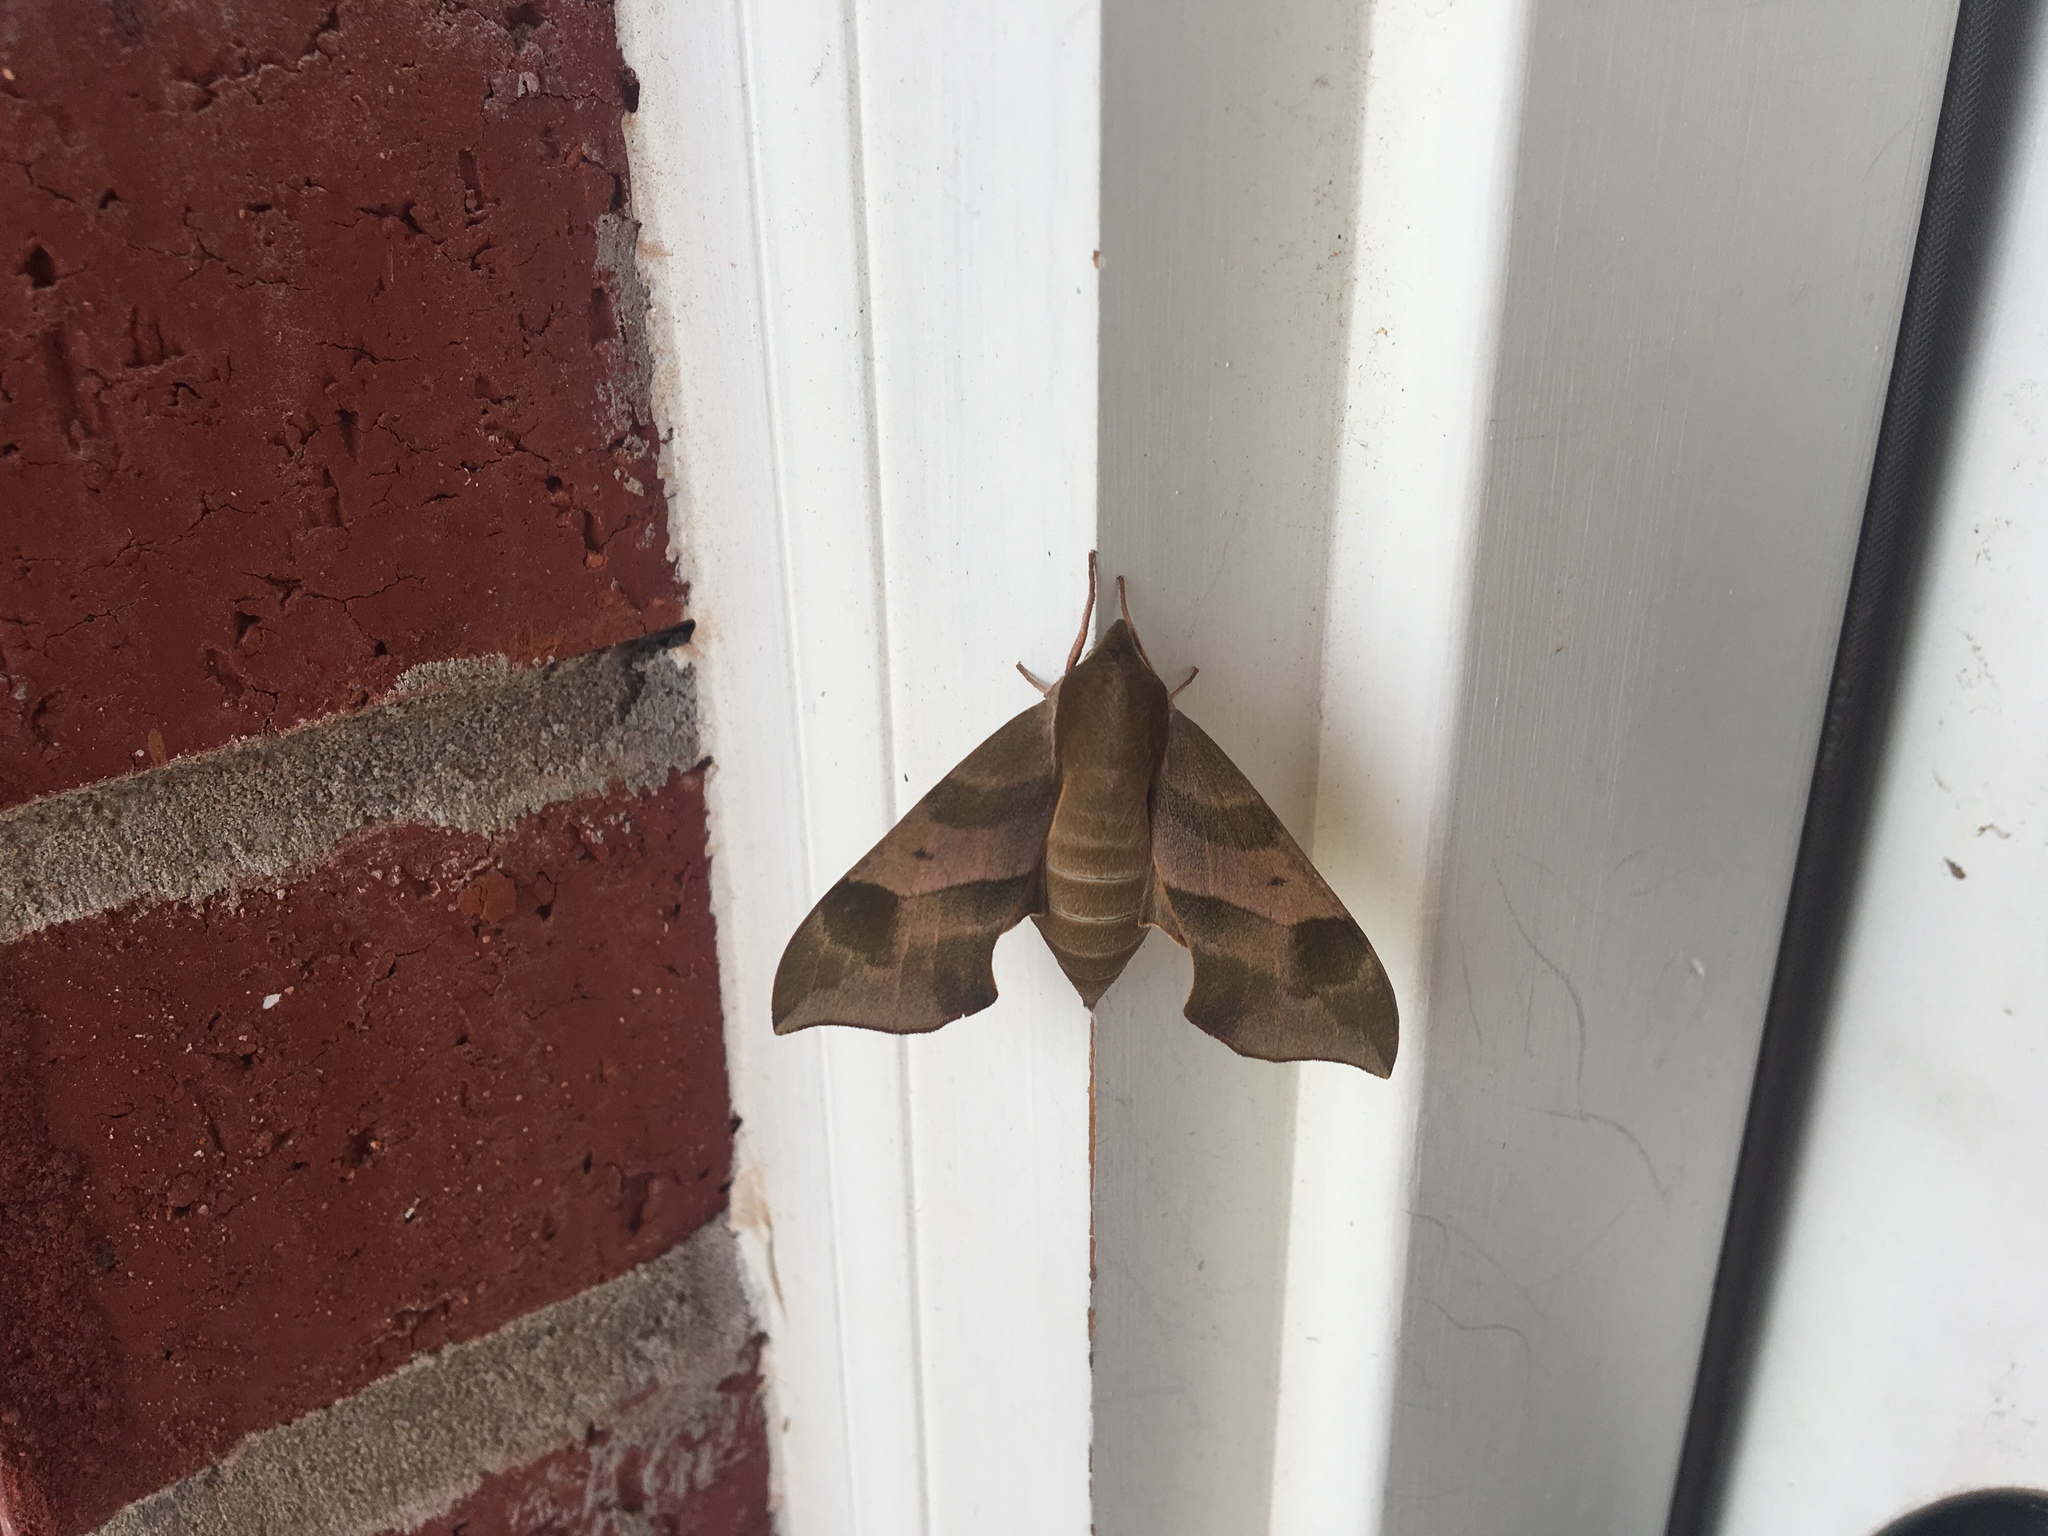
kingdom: Animalia
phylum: Arthropoda
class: Insecta
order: Lepidoptera
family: Sphingidae
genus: Darapsa
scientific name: Darapsa myron
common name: Hog sphinx
